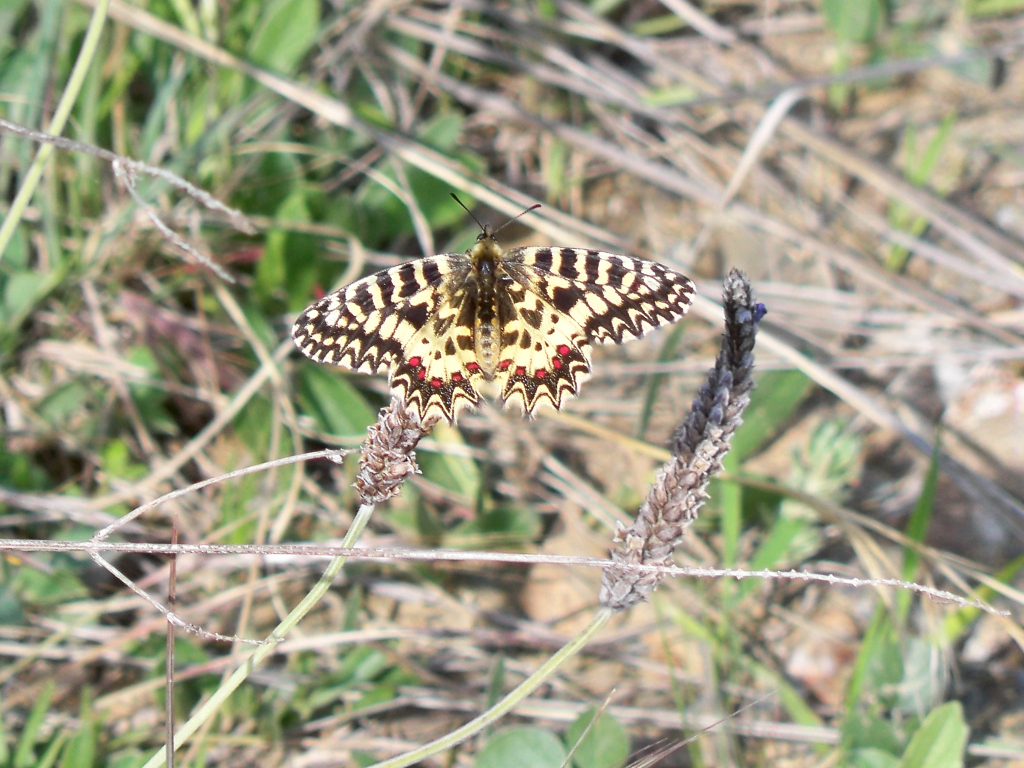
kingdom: Animalia
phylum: Arthropoda
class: Insecta
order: Lepidoptera
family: Papilionidae
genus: Zerynthia
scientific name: Zerynthia rumina
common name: Spanish festoon
